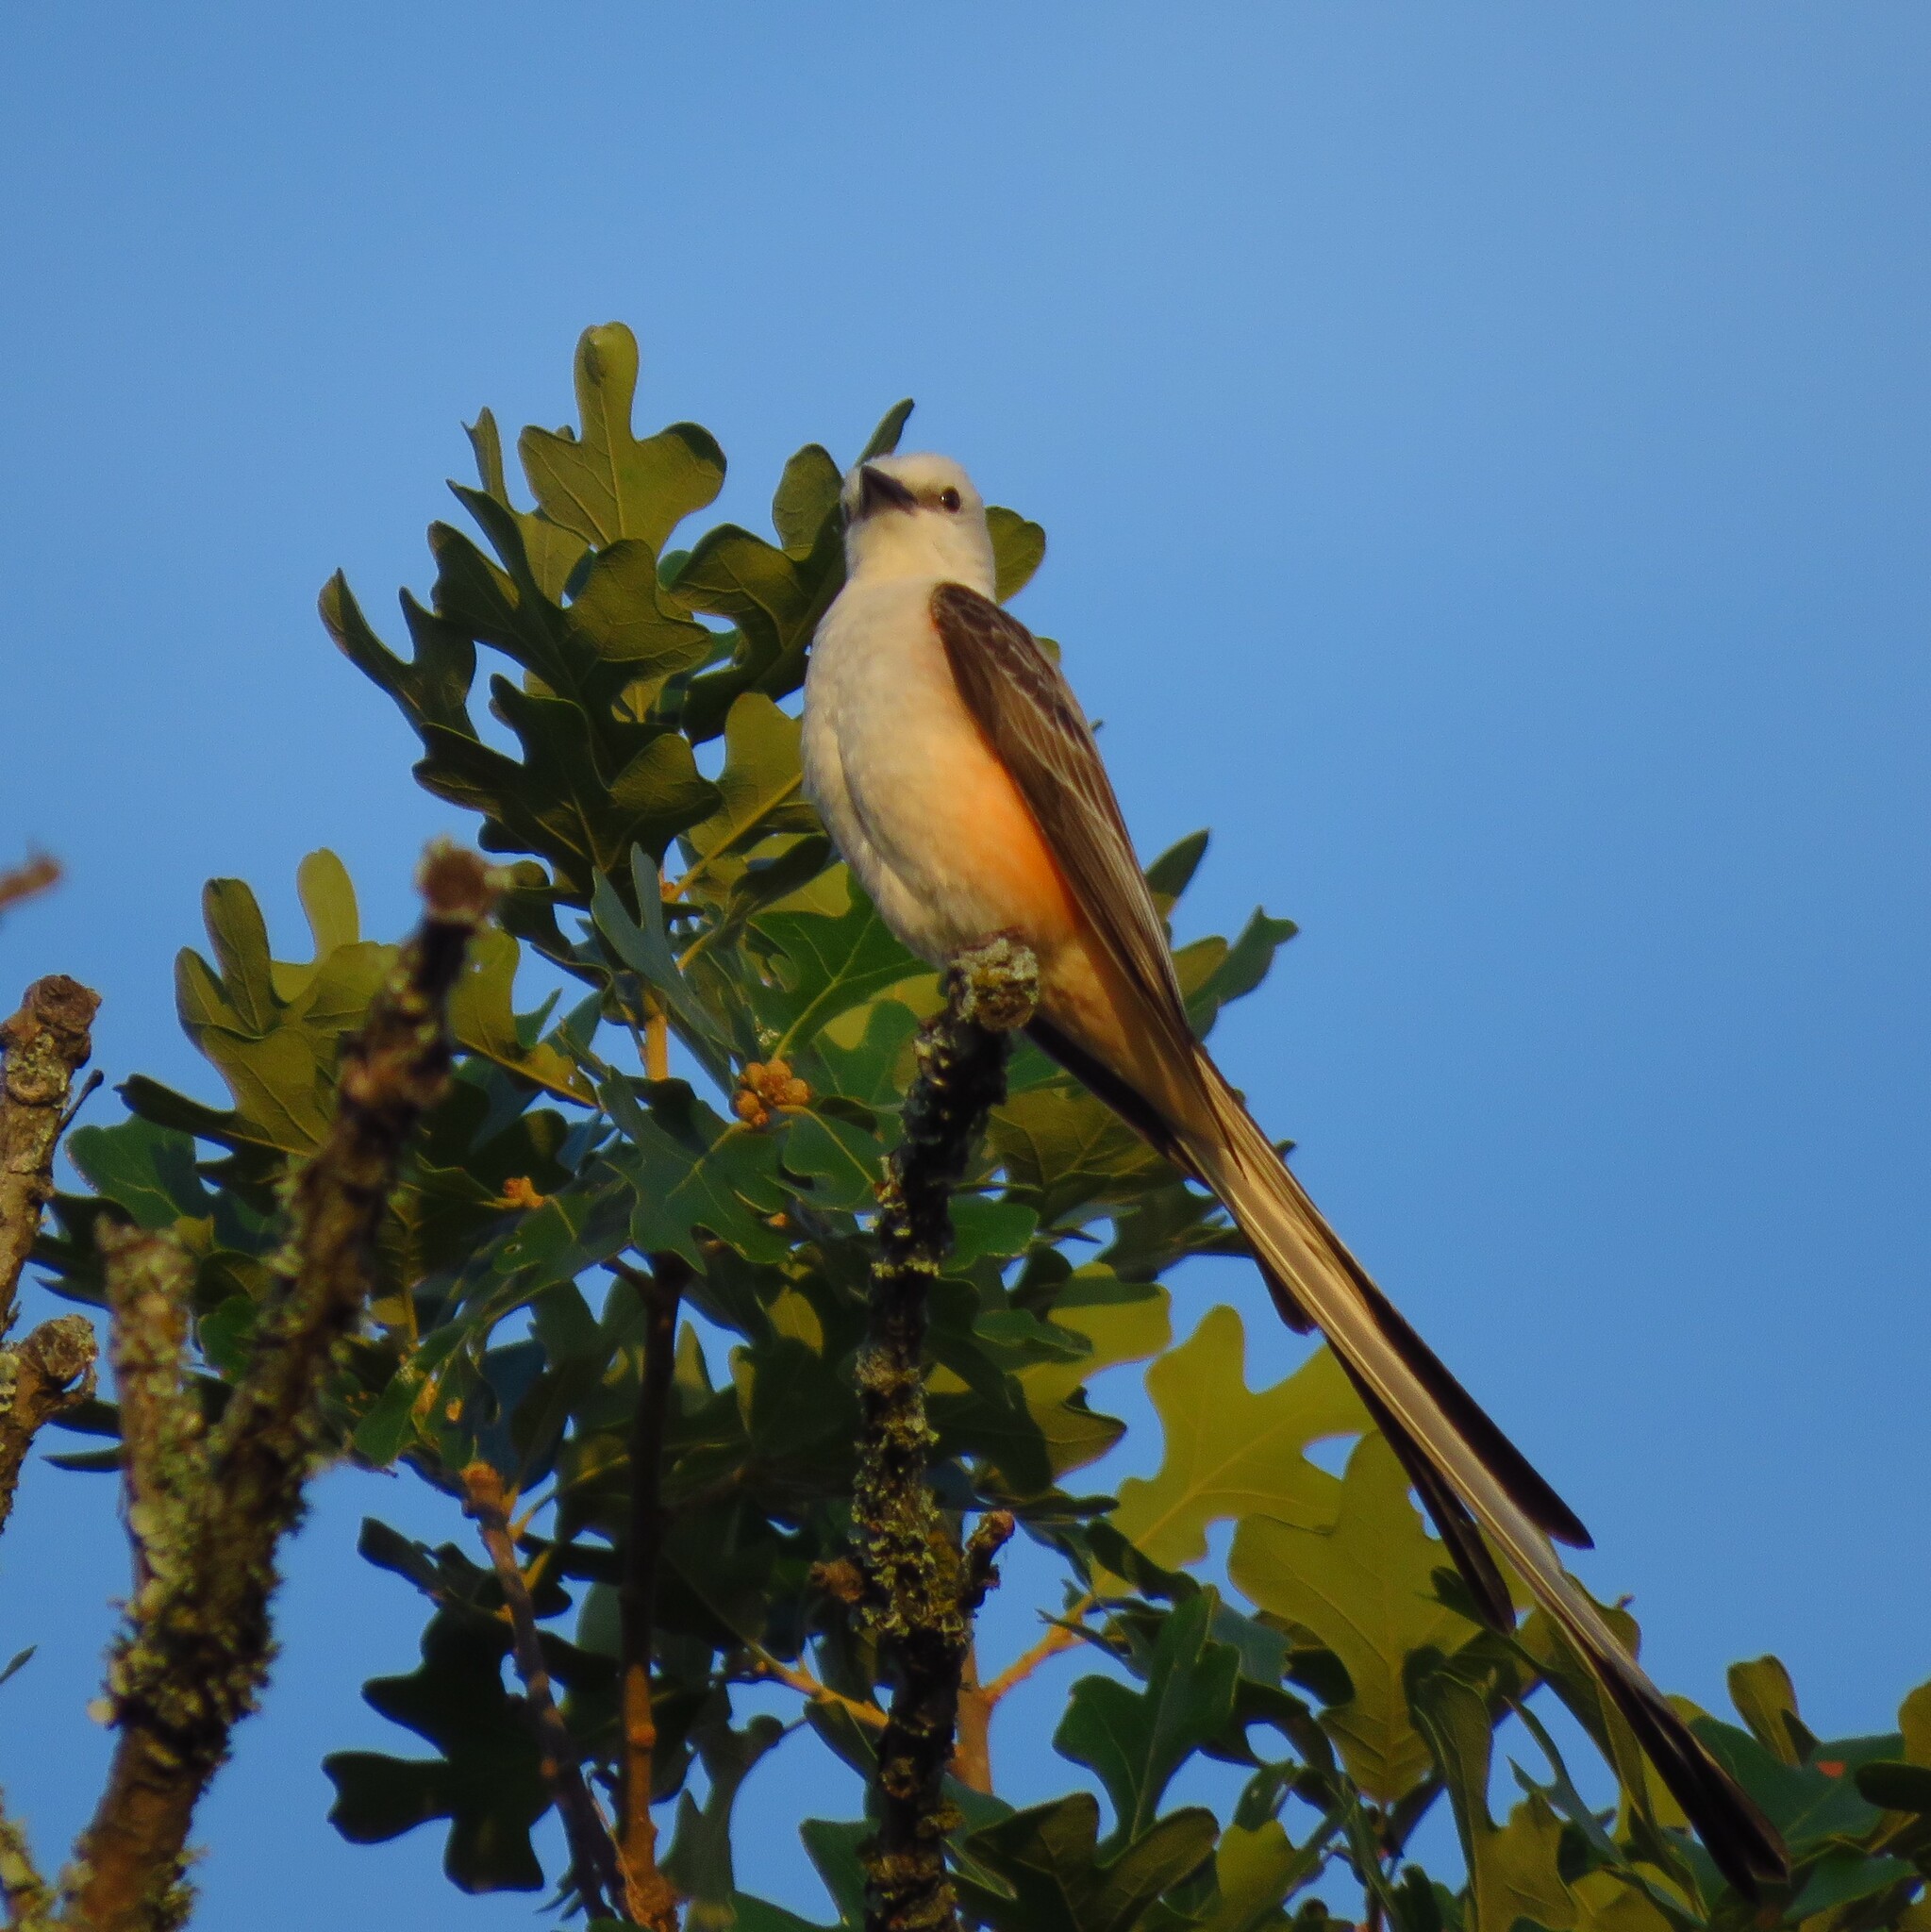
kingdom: Animalia
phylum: Chordata
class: Aves
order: Passeriformes
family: Tyrannidae
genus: Tyrannus
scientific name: Tyrannus forficatus
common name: Scissor-tailed flycatcher
